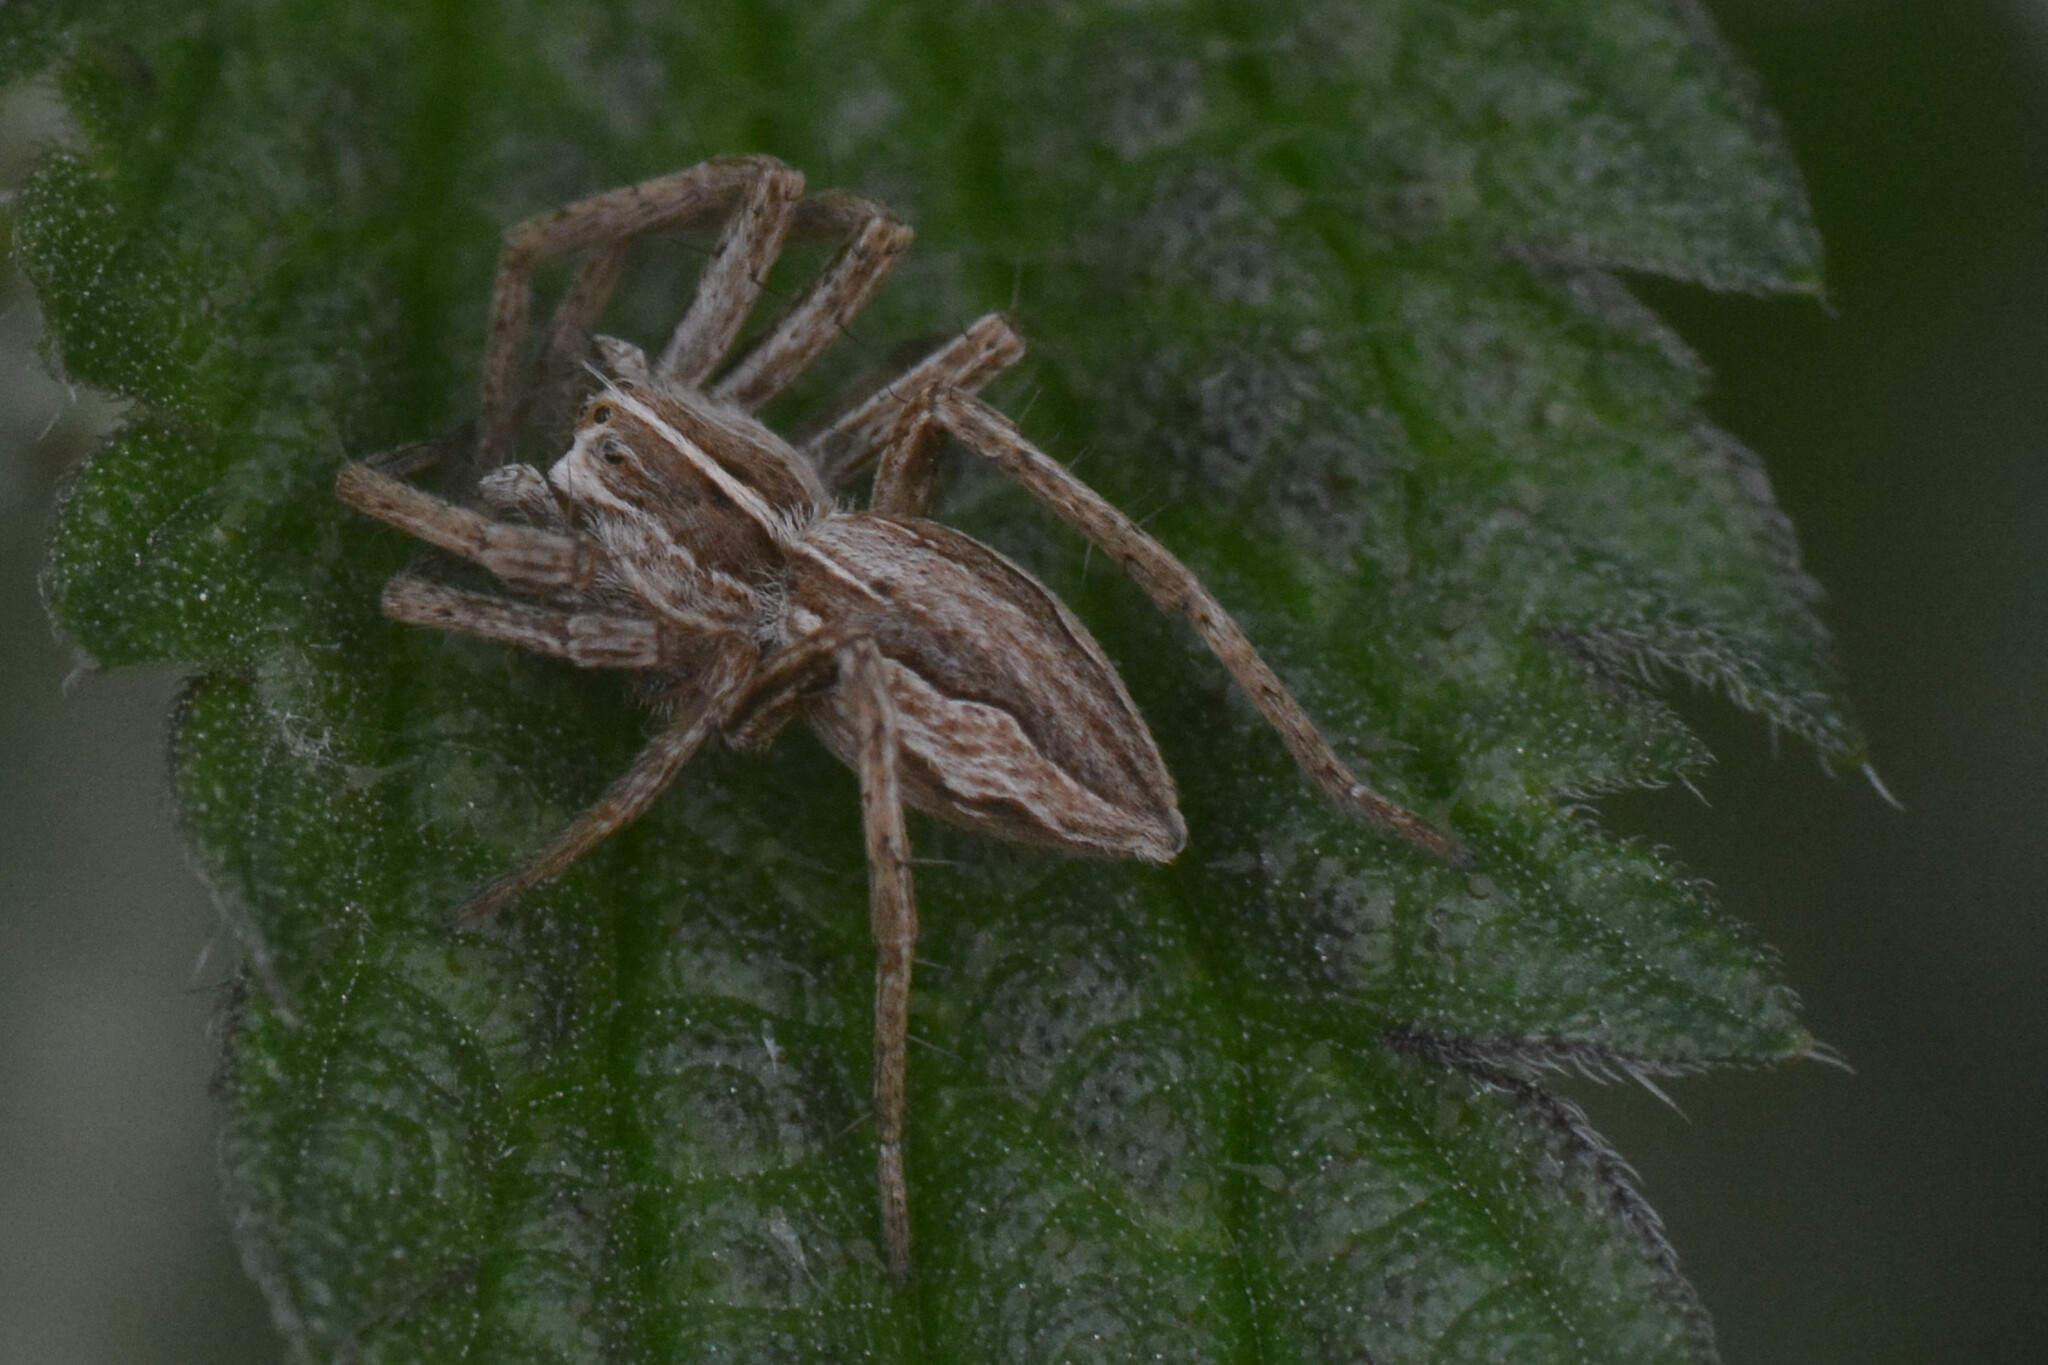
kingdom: Animalia
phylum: Arthropoda
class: Arachnida
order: Araneae
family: Pisauridae
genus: Pisaura
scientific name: Pisaura mirabilis
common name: Tent spider
